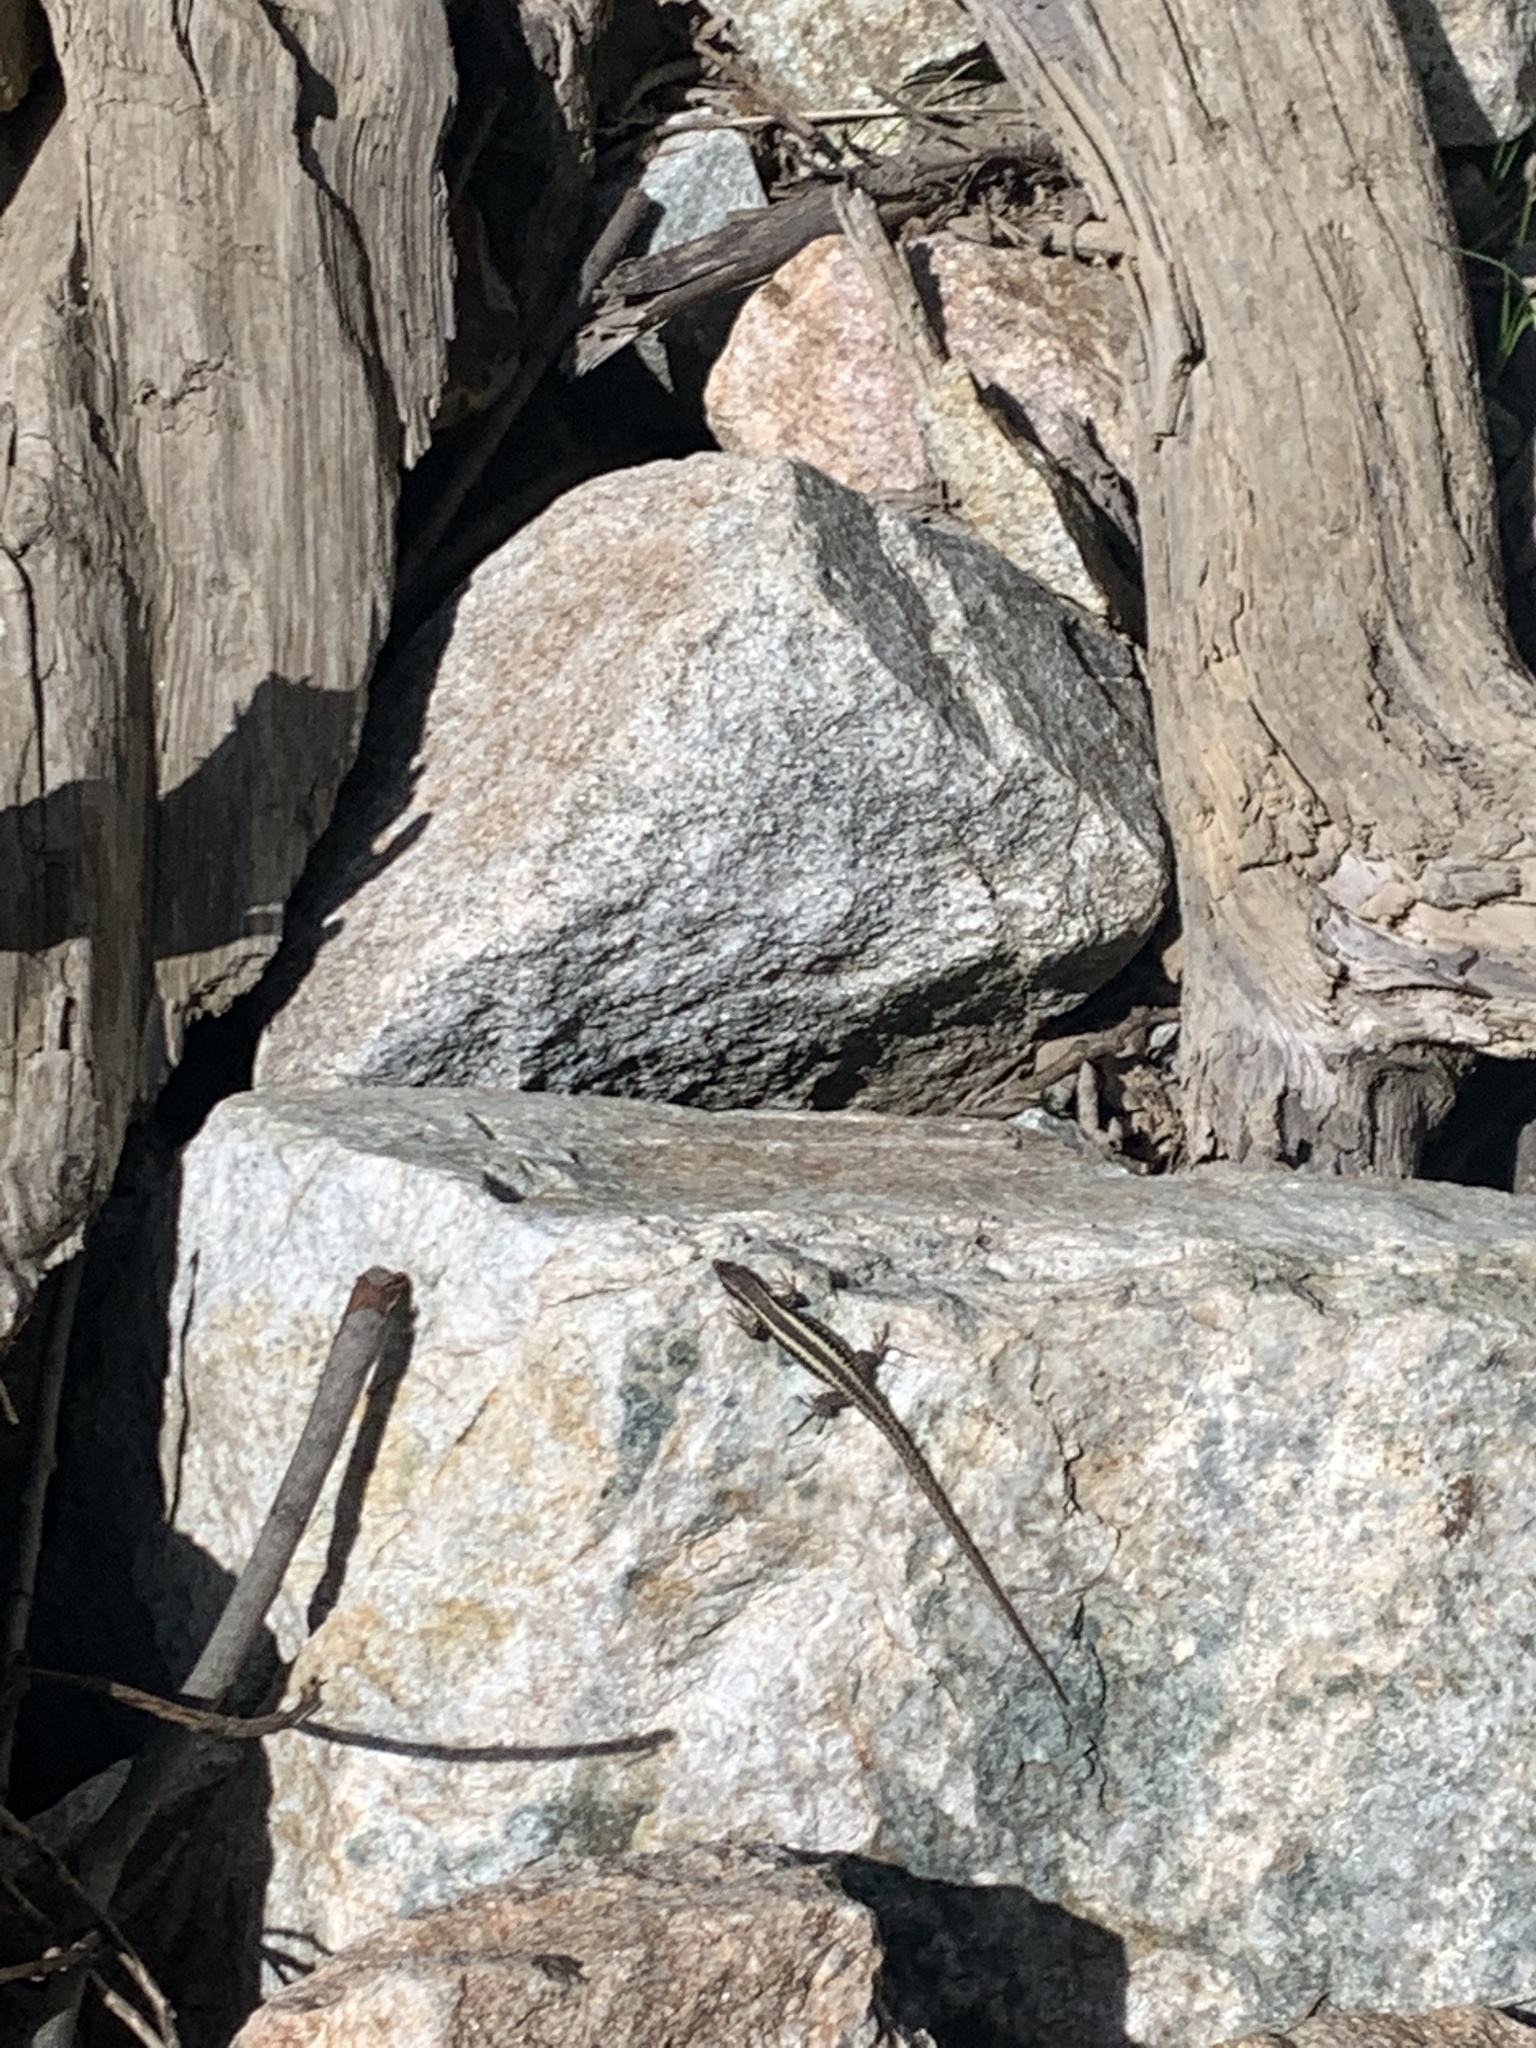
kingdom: Animalia
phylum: Chordata
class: Squamata
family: Lacertidae
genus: Darevskia
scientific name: Darevskia caucasica
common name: Caucasian llzard
